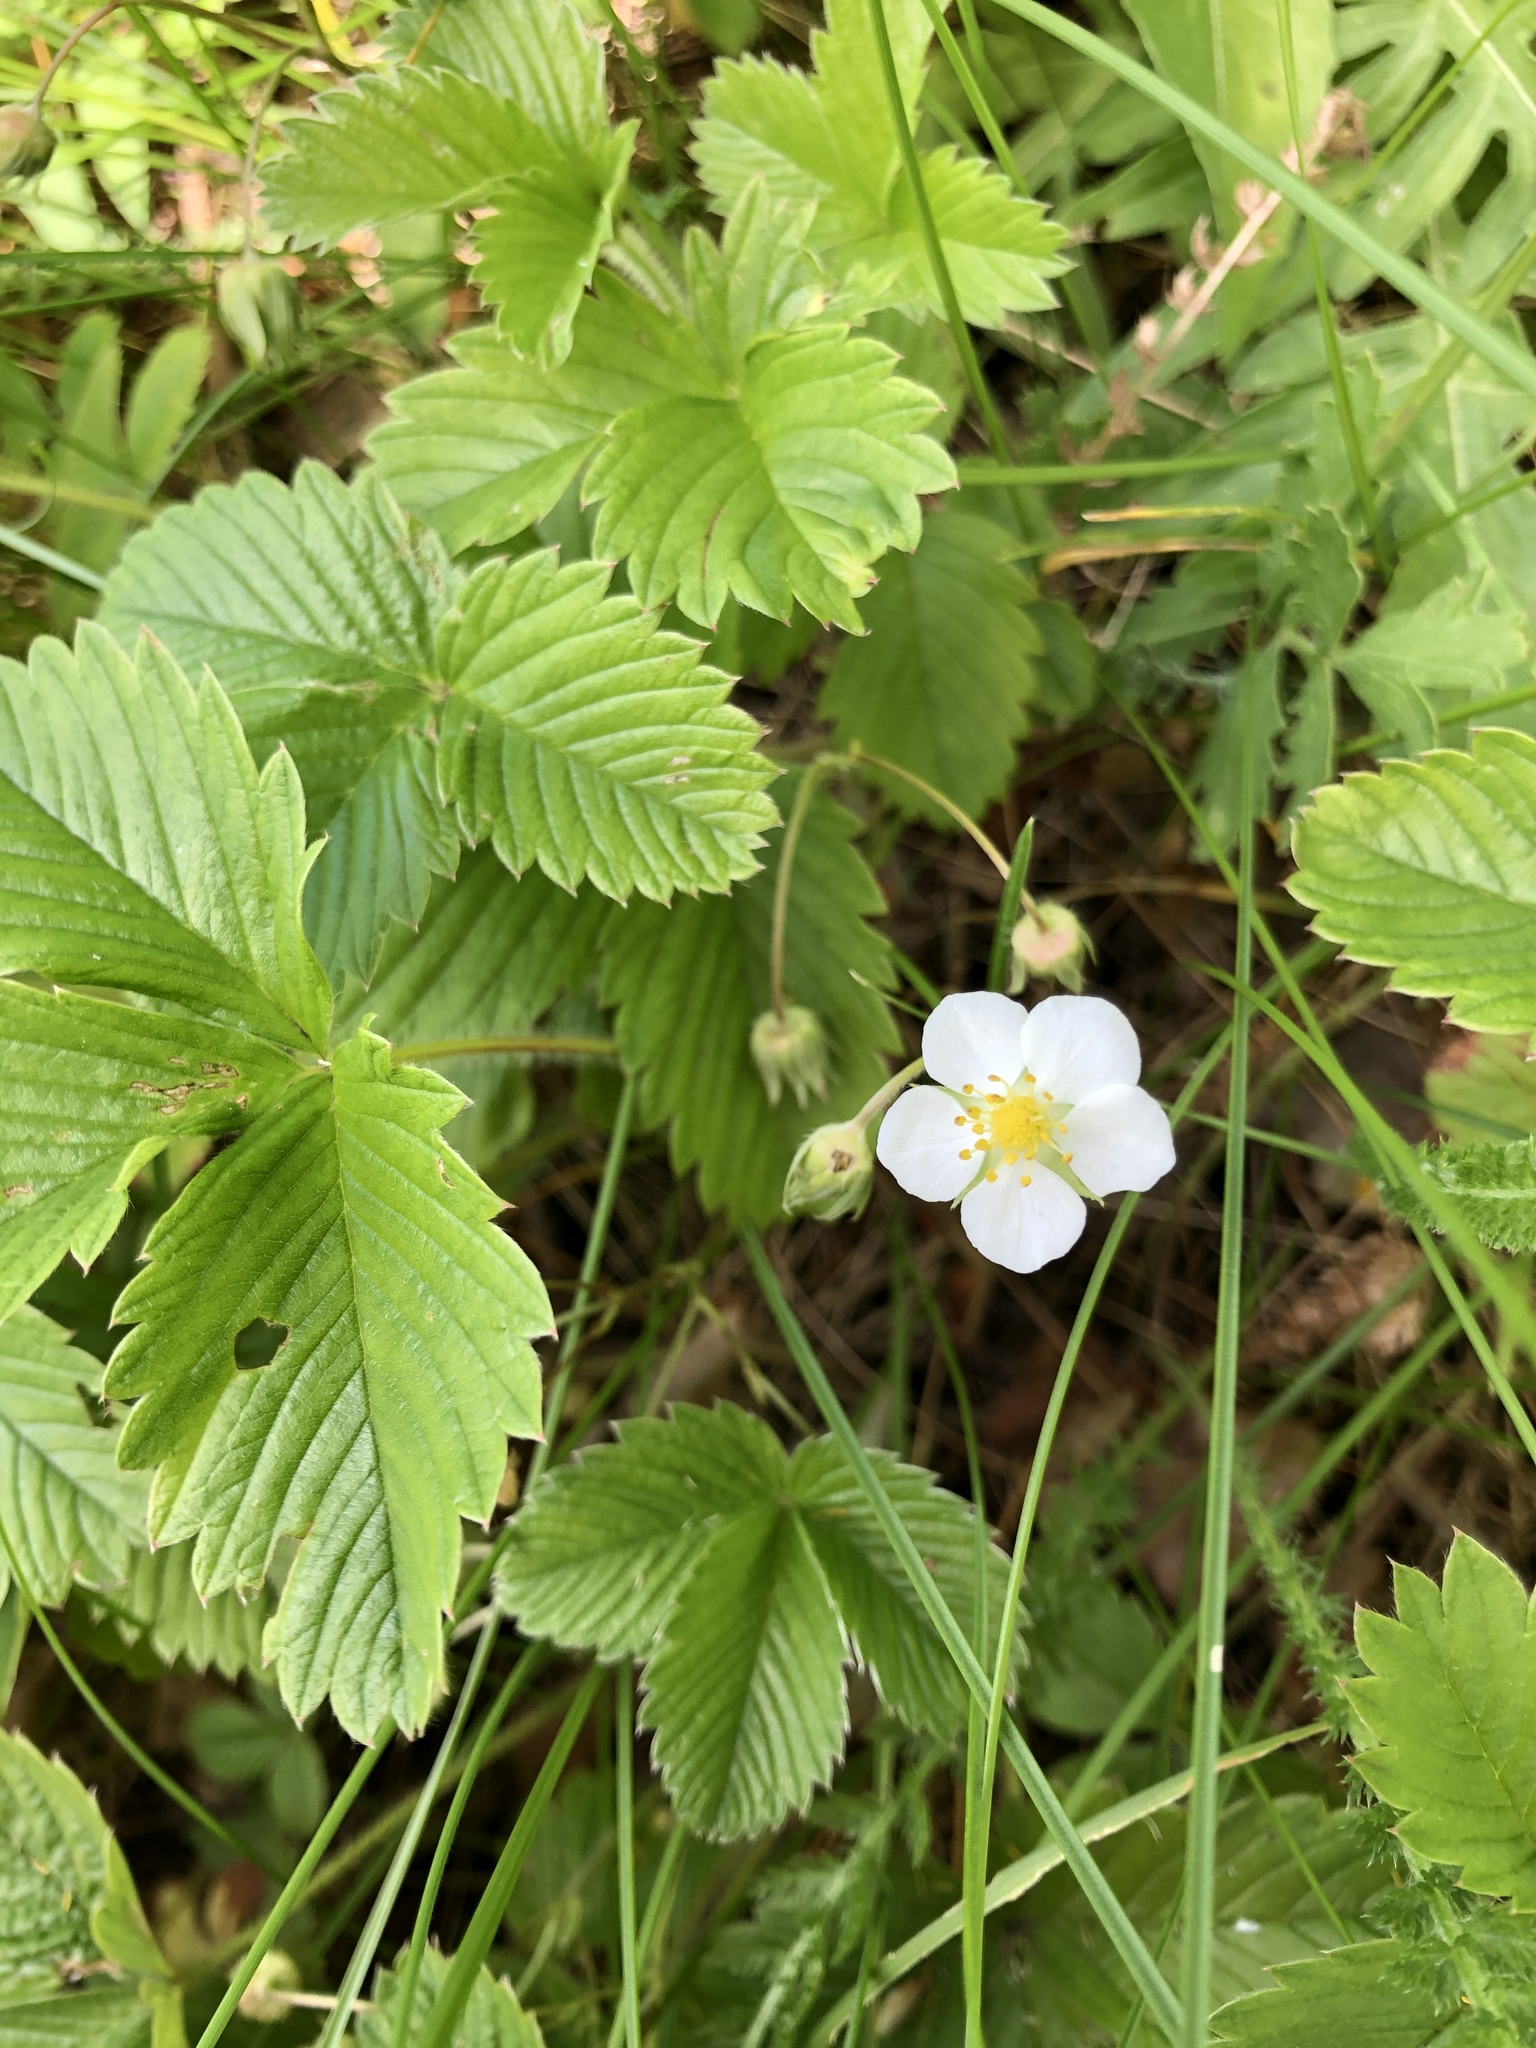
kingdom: Plantae
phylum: Tracheophyta
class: Magnoliopsida
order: Rosales
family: Rosaceae
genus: Fragaria
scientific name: Fragaria viridis
